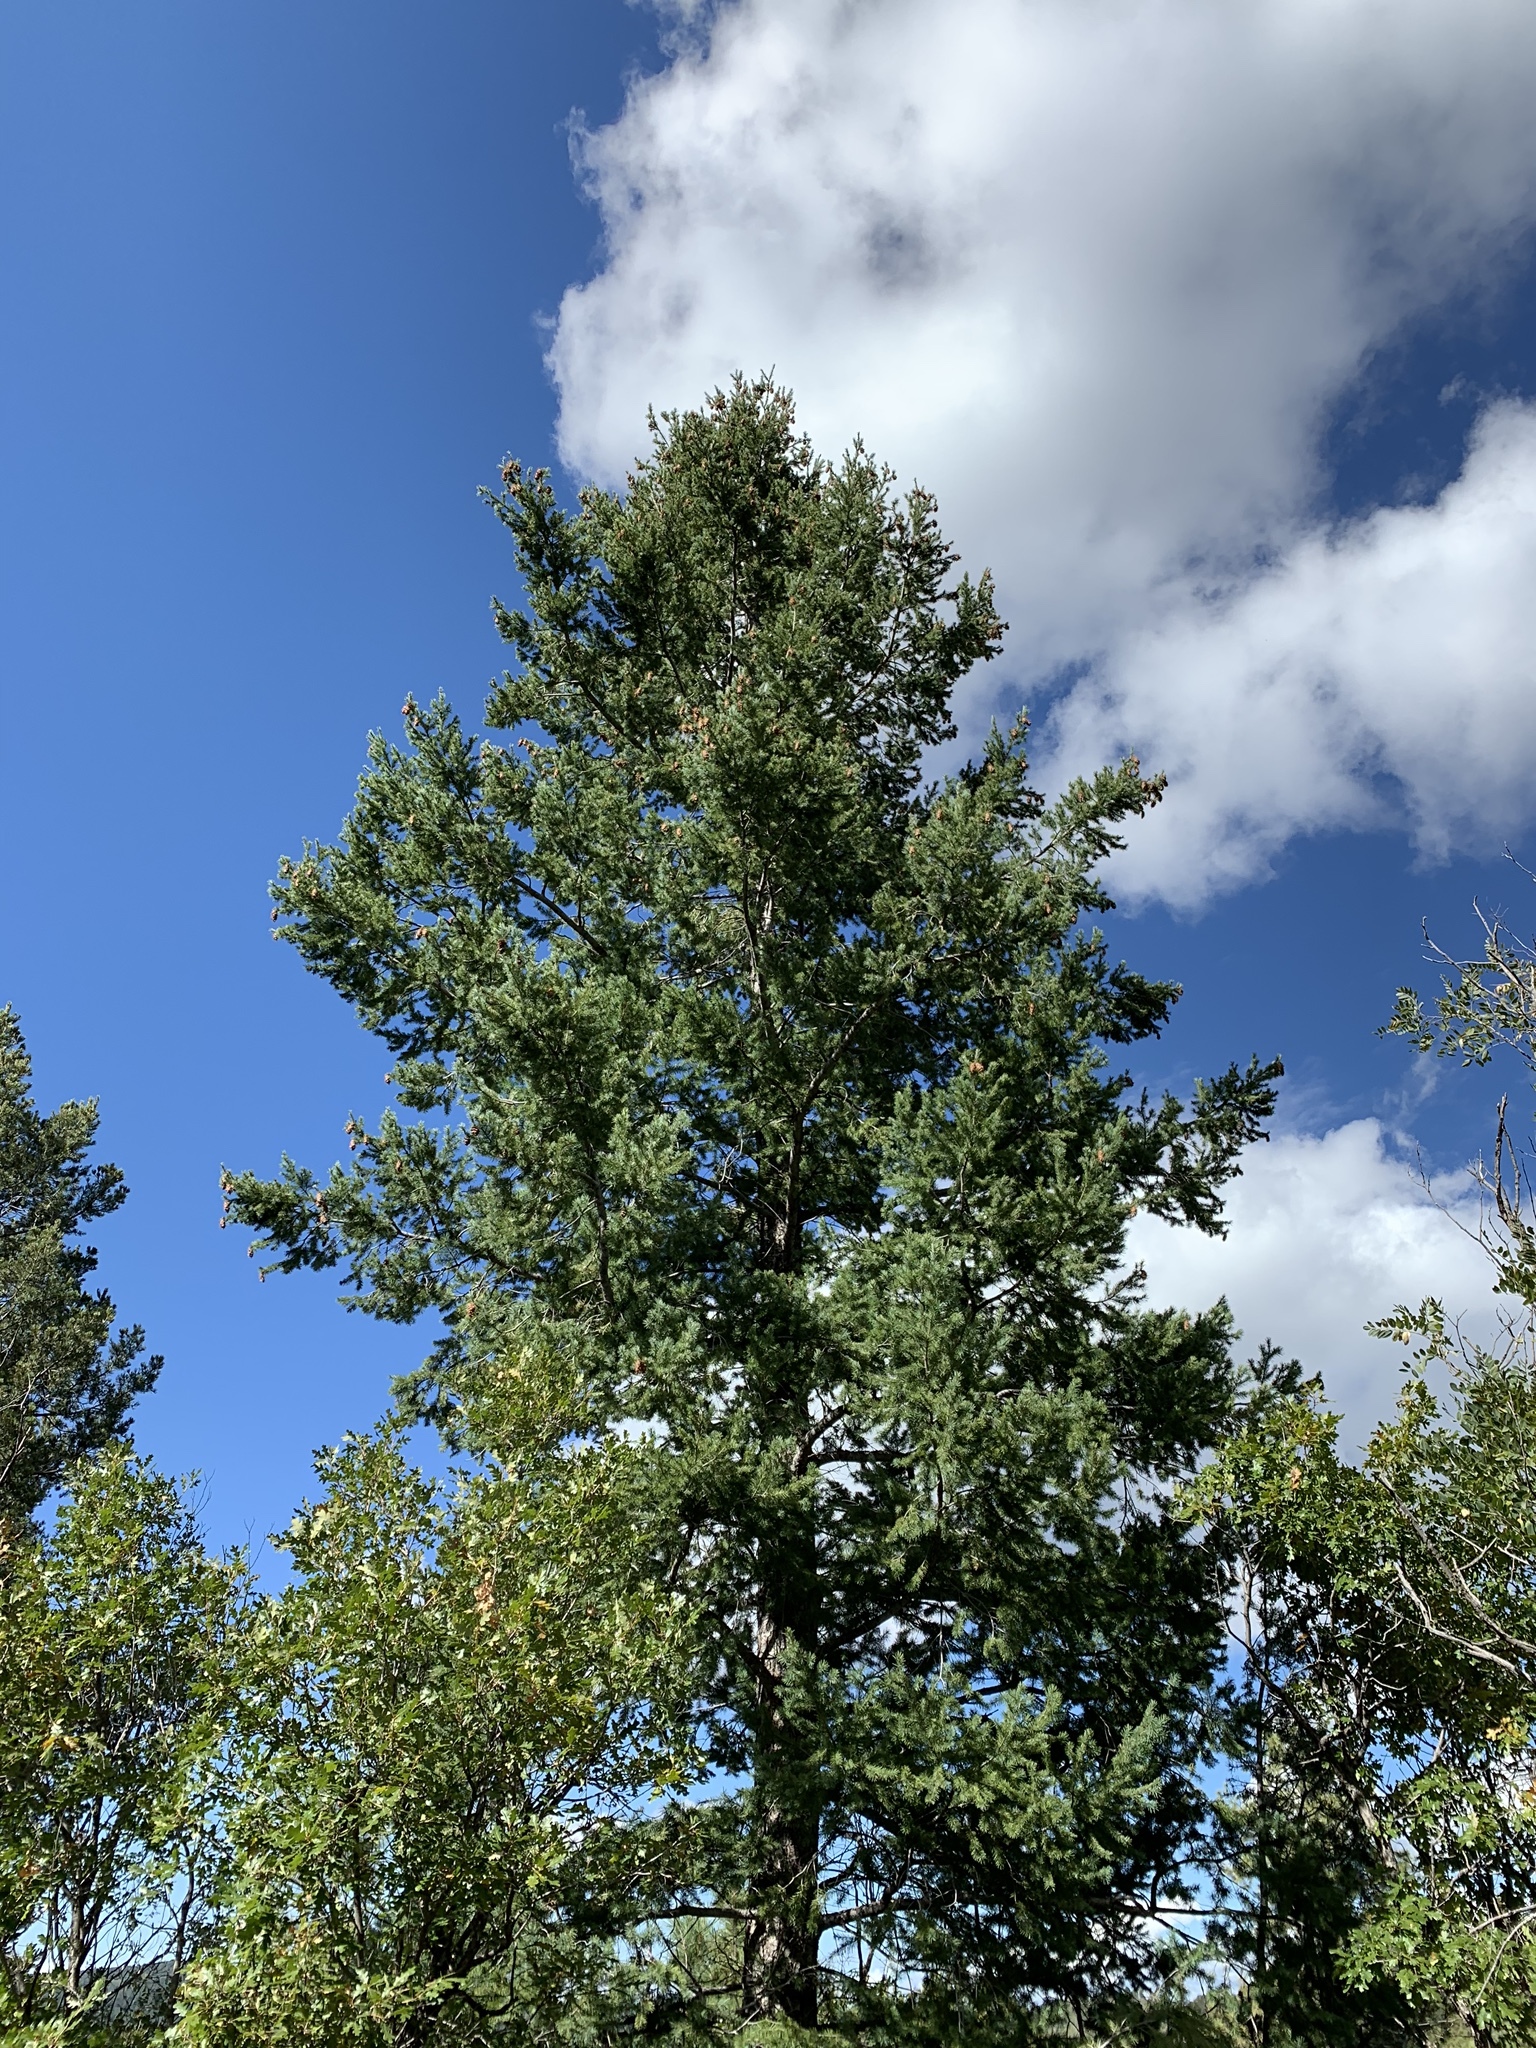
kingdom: Plantae
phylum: Tracheophyta
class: Pinopsida
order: Pinales
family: Pinaceae
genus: Pseudotsuga
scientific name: Pseudotsuga menziesii
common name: Douglas fir
